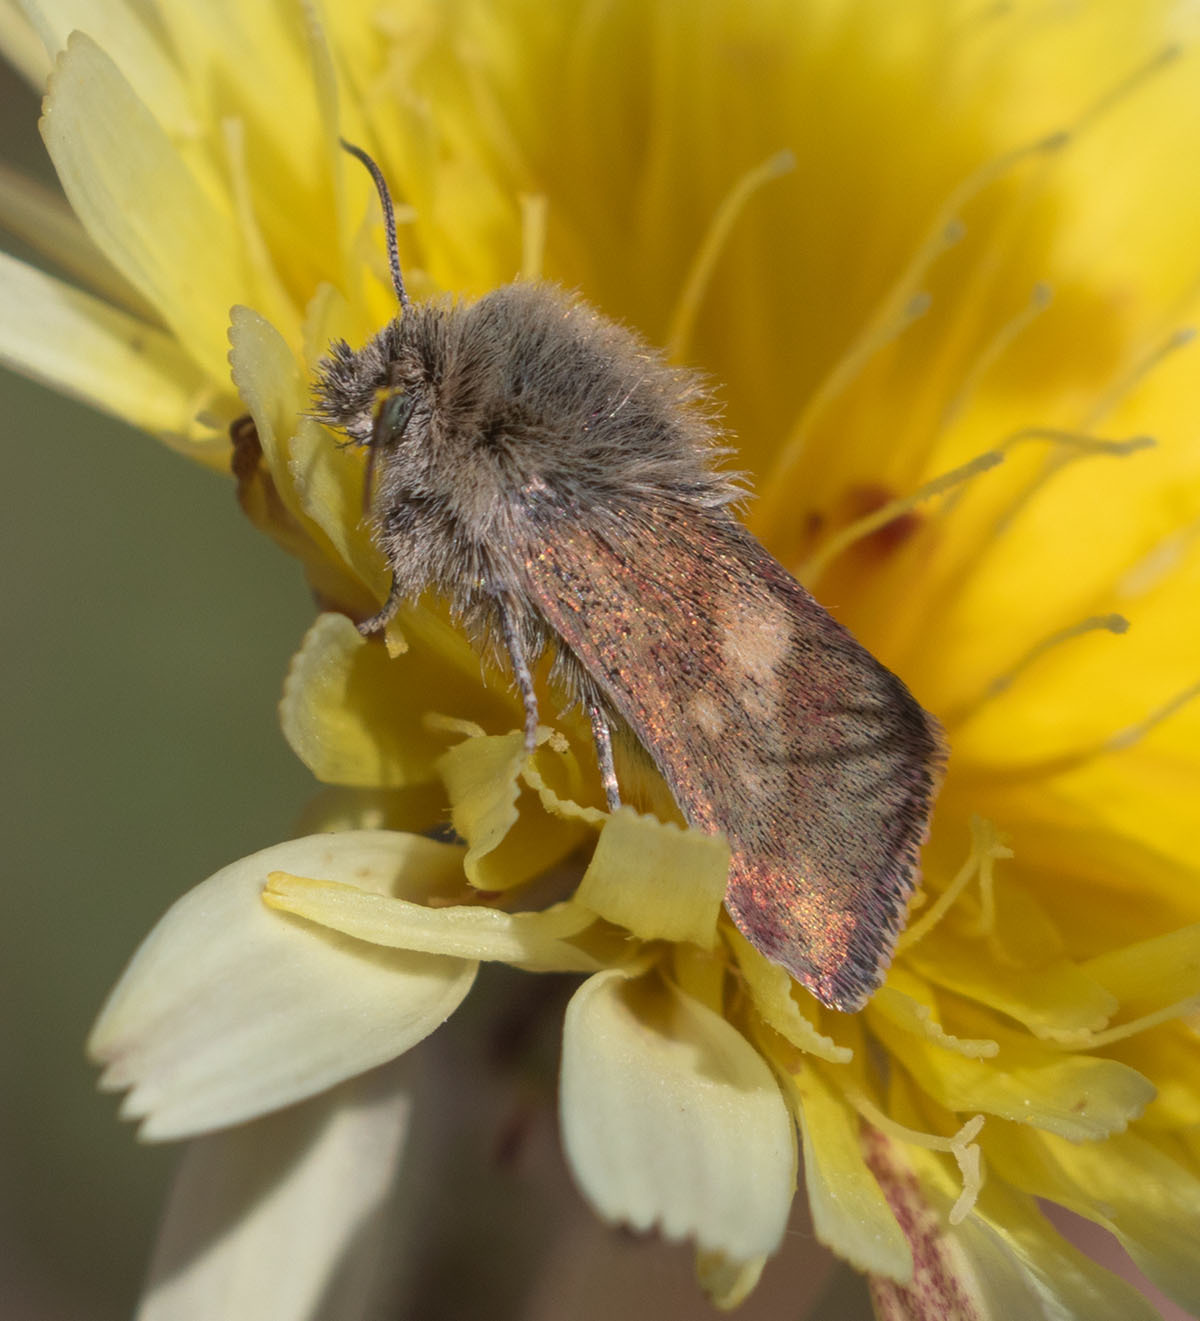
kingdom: Animalia
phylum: Arthropoda
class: Insecta
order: Lepidoptera
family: Noctuidae
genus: Heliolonche
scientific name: Heliolonche joaquinensis
